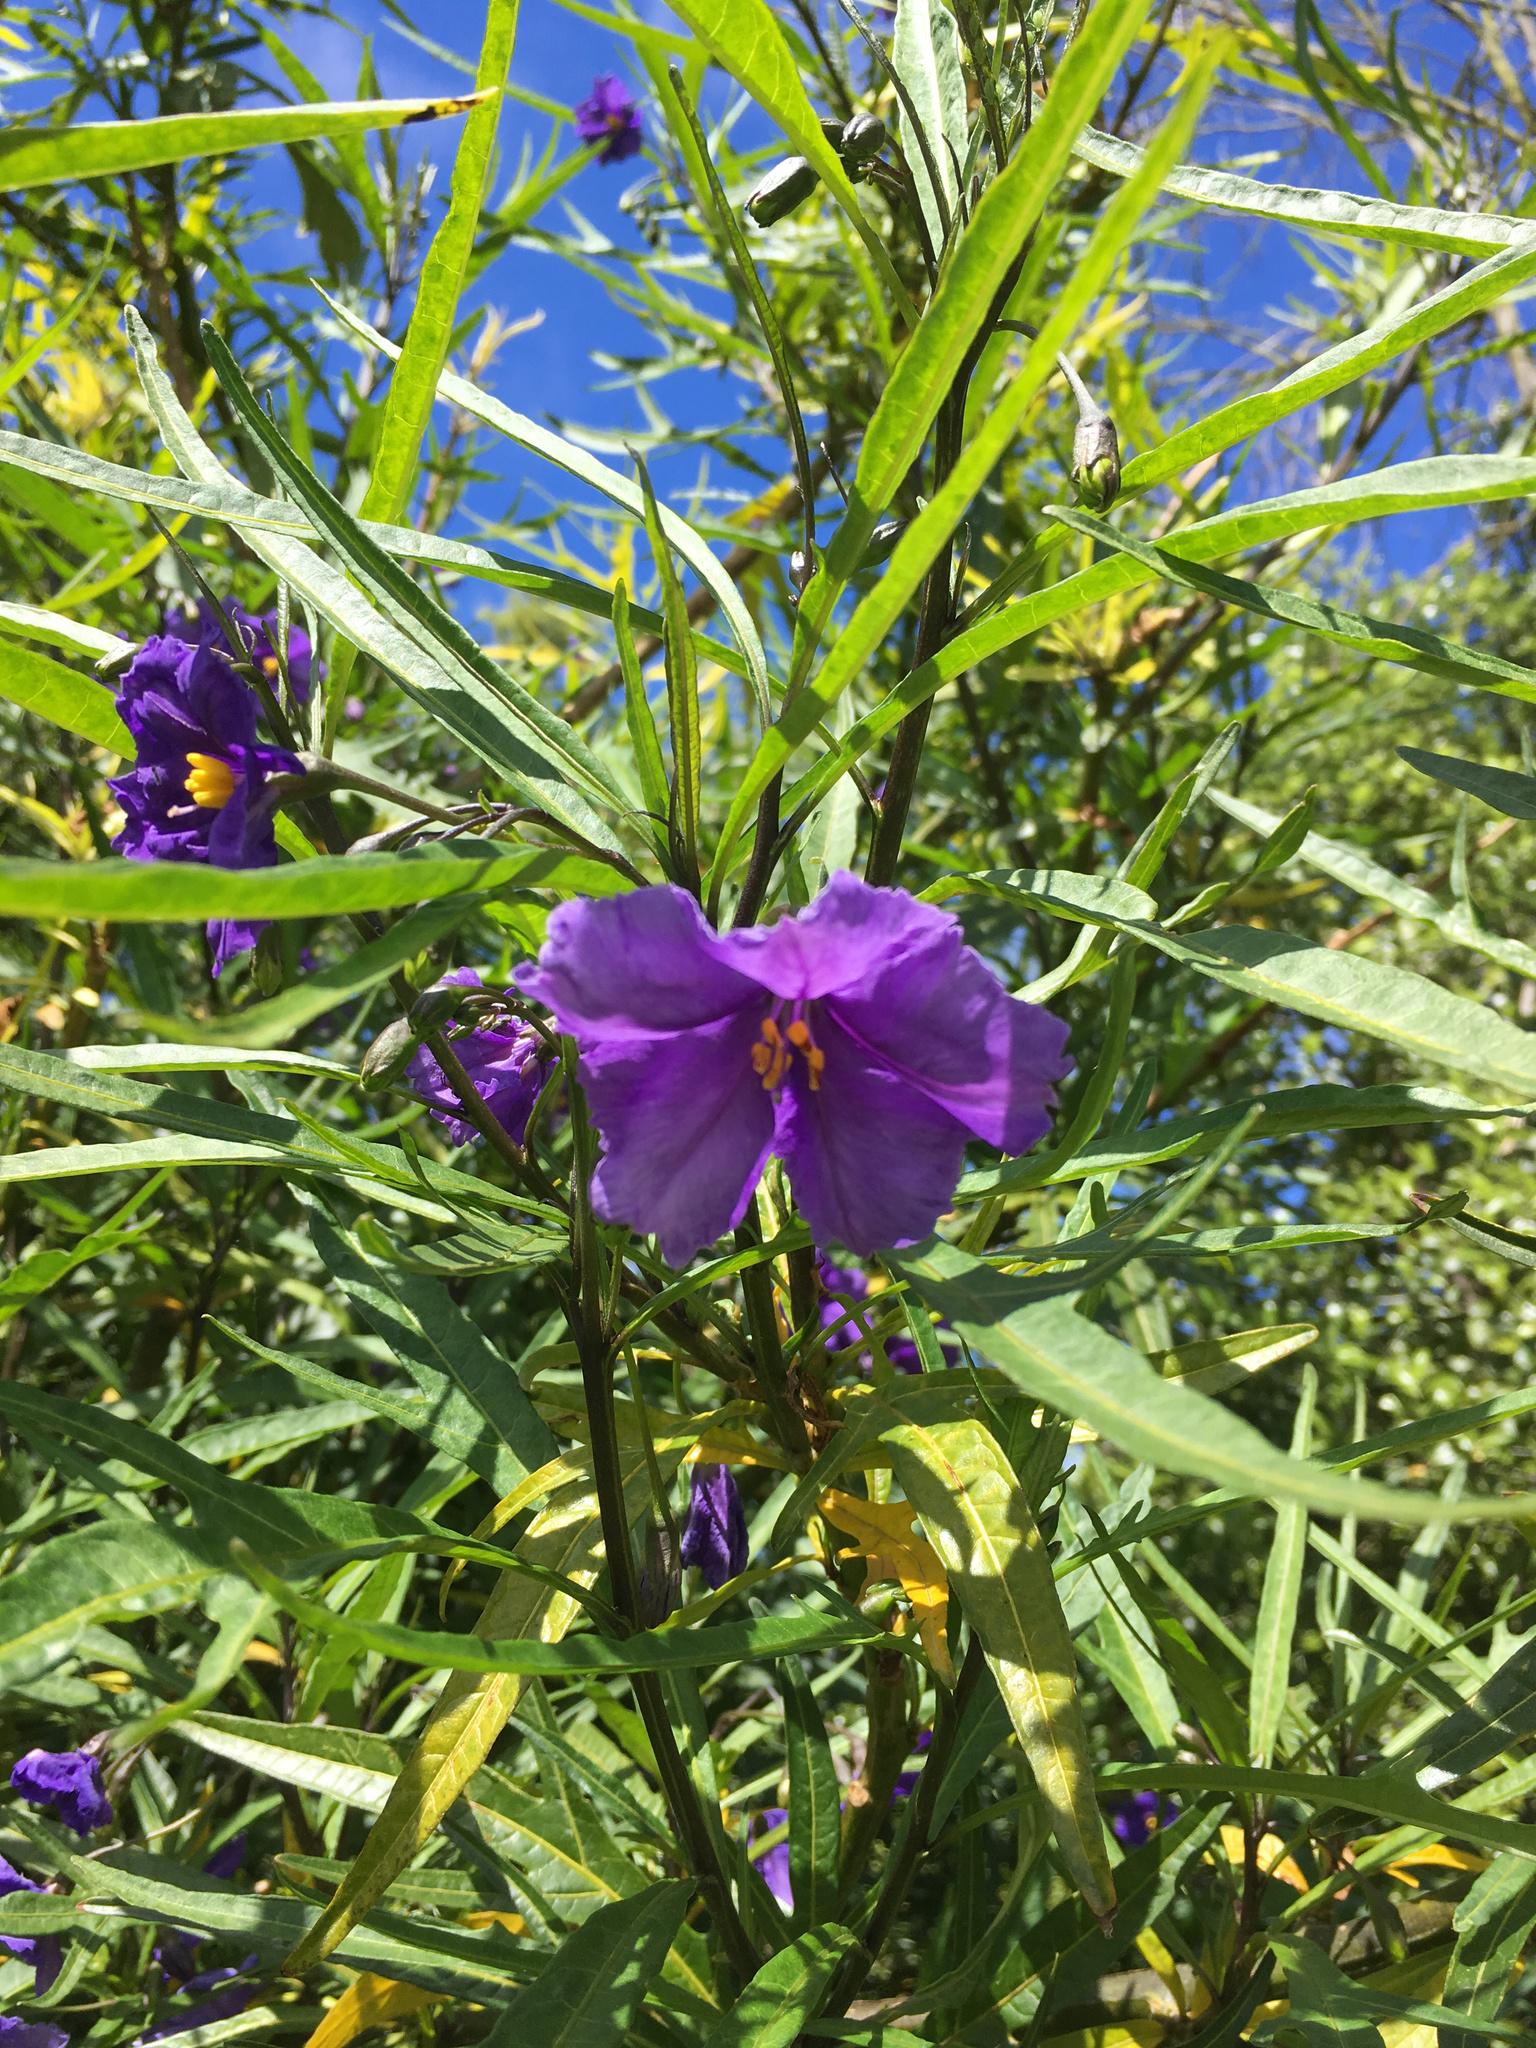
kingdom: Plantae
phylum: Tracheophyta
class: Magnoliopsida
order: Solanales
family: Solanaceae
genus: Solanum
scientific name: Solanum laciniatum
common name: Kangaroo-apple
